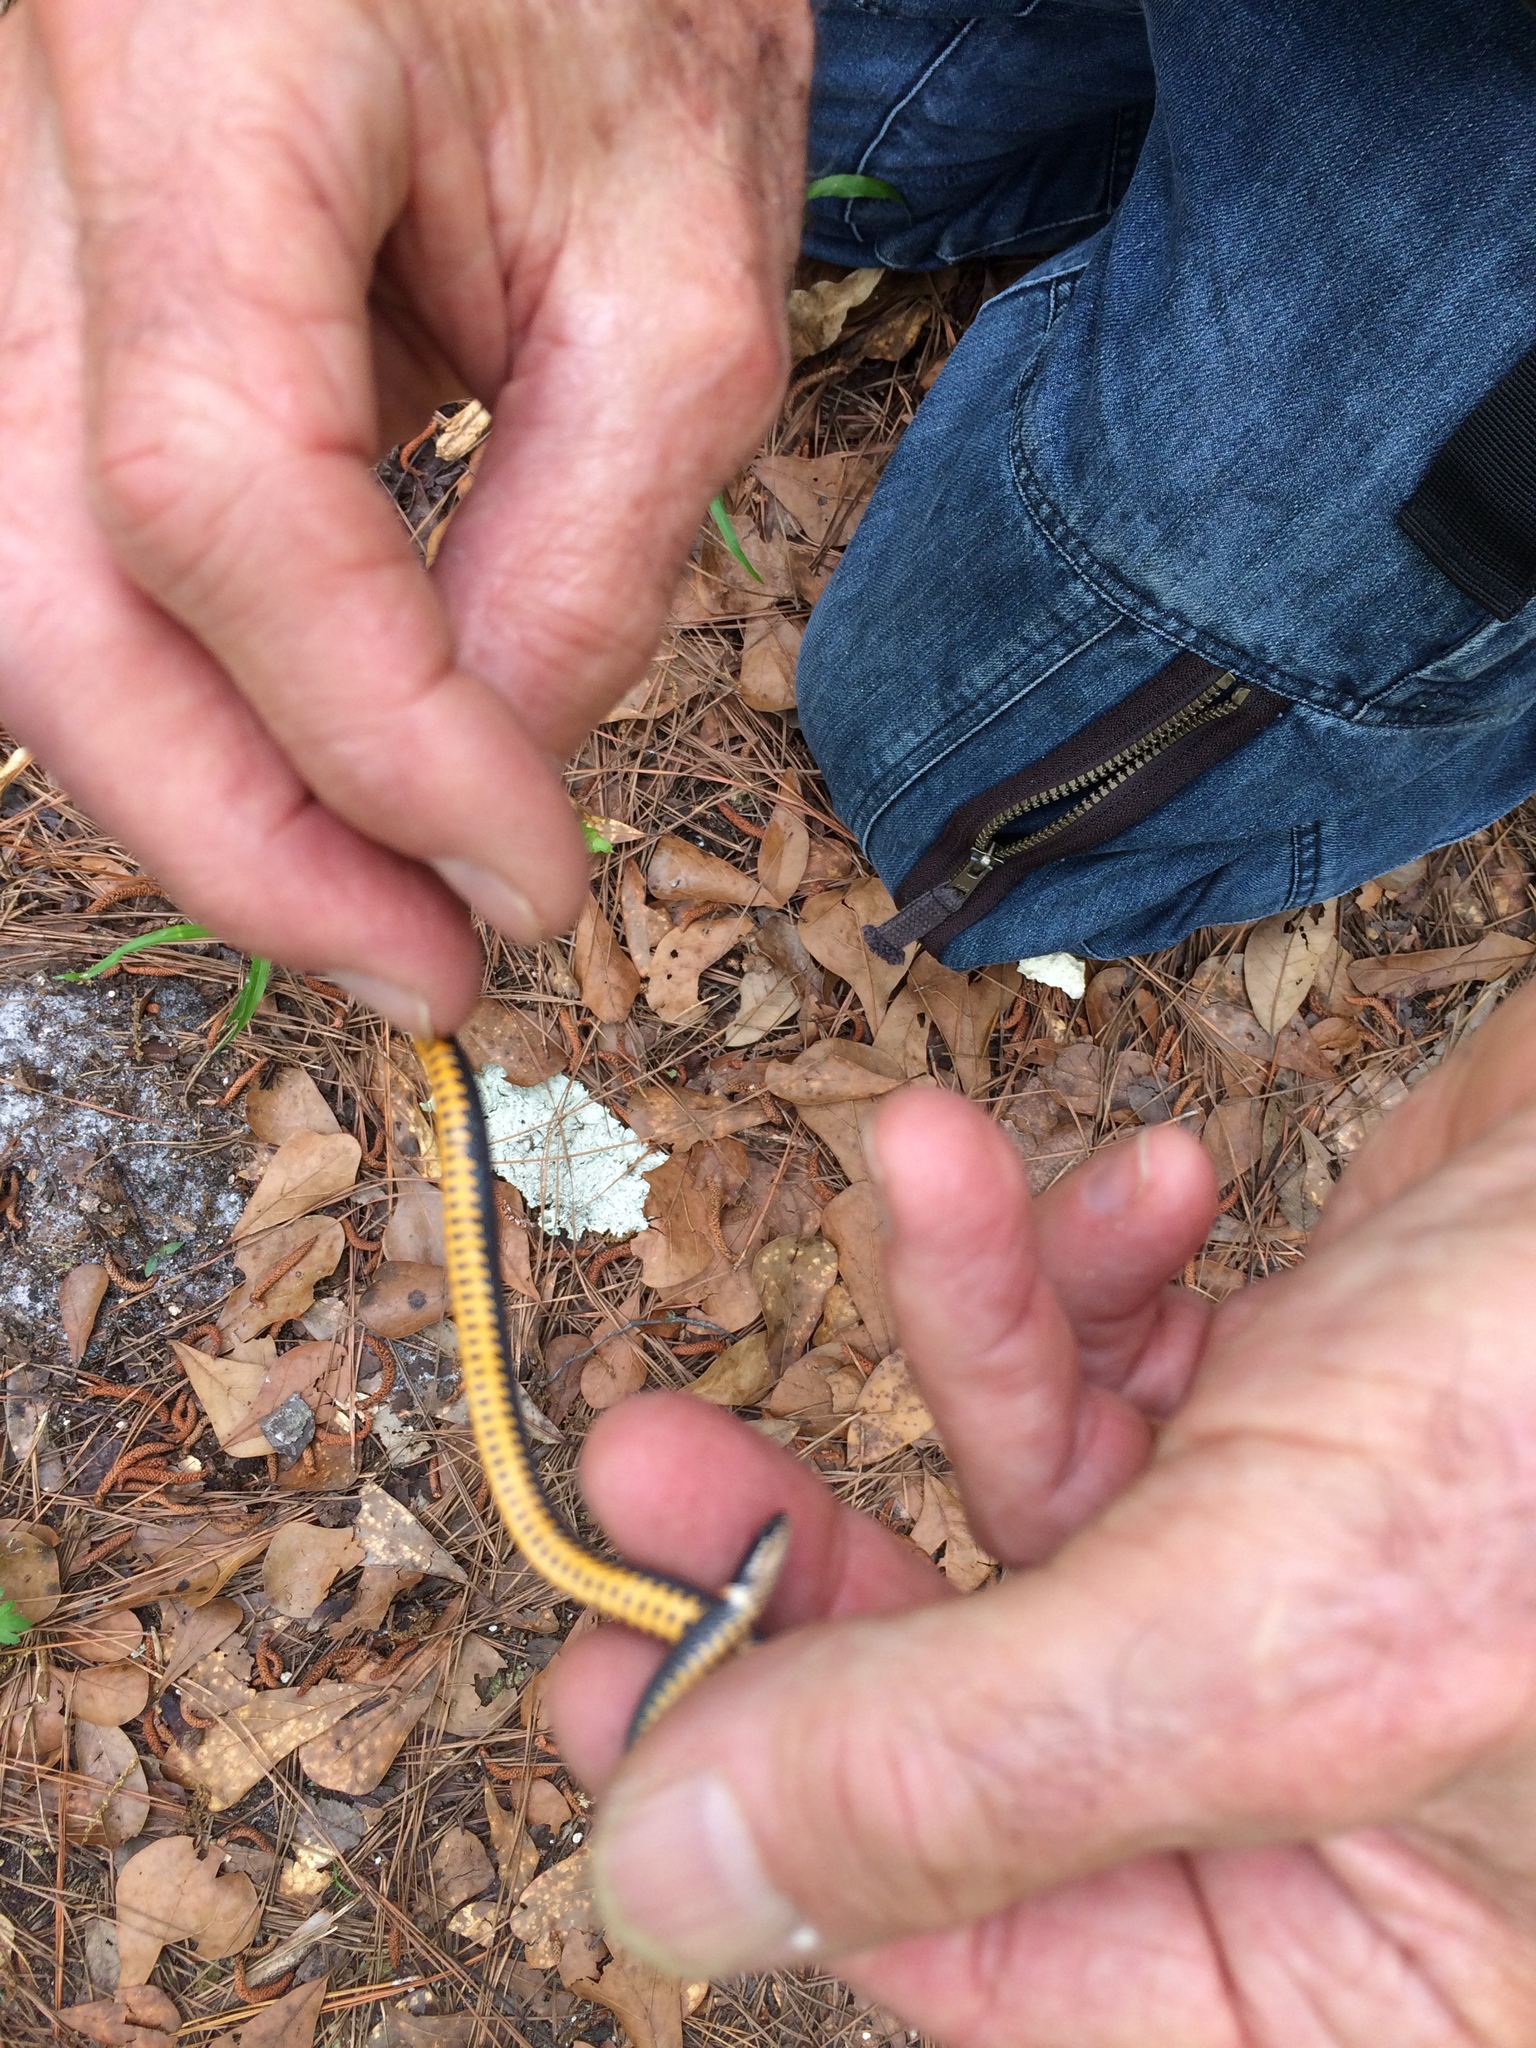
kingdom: Animalia
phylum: Chordata
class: Squamata
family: Colubridae
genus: Diadophis
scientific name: Diadophis punctatus
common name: Ringneck snake
